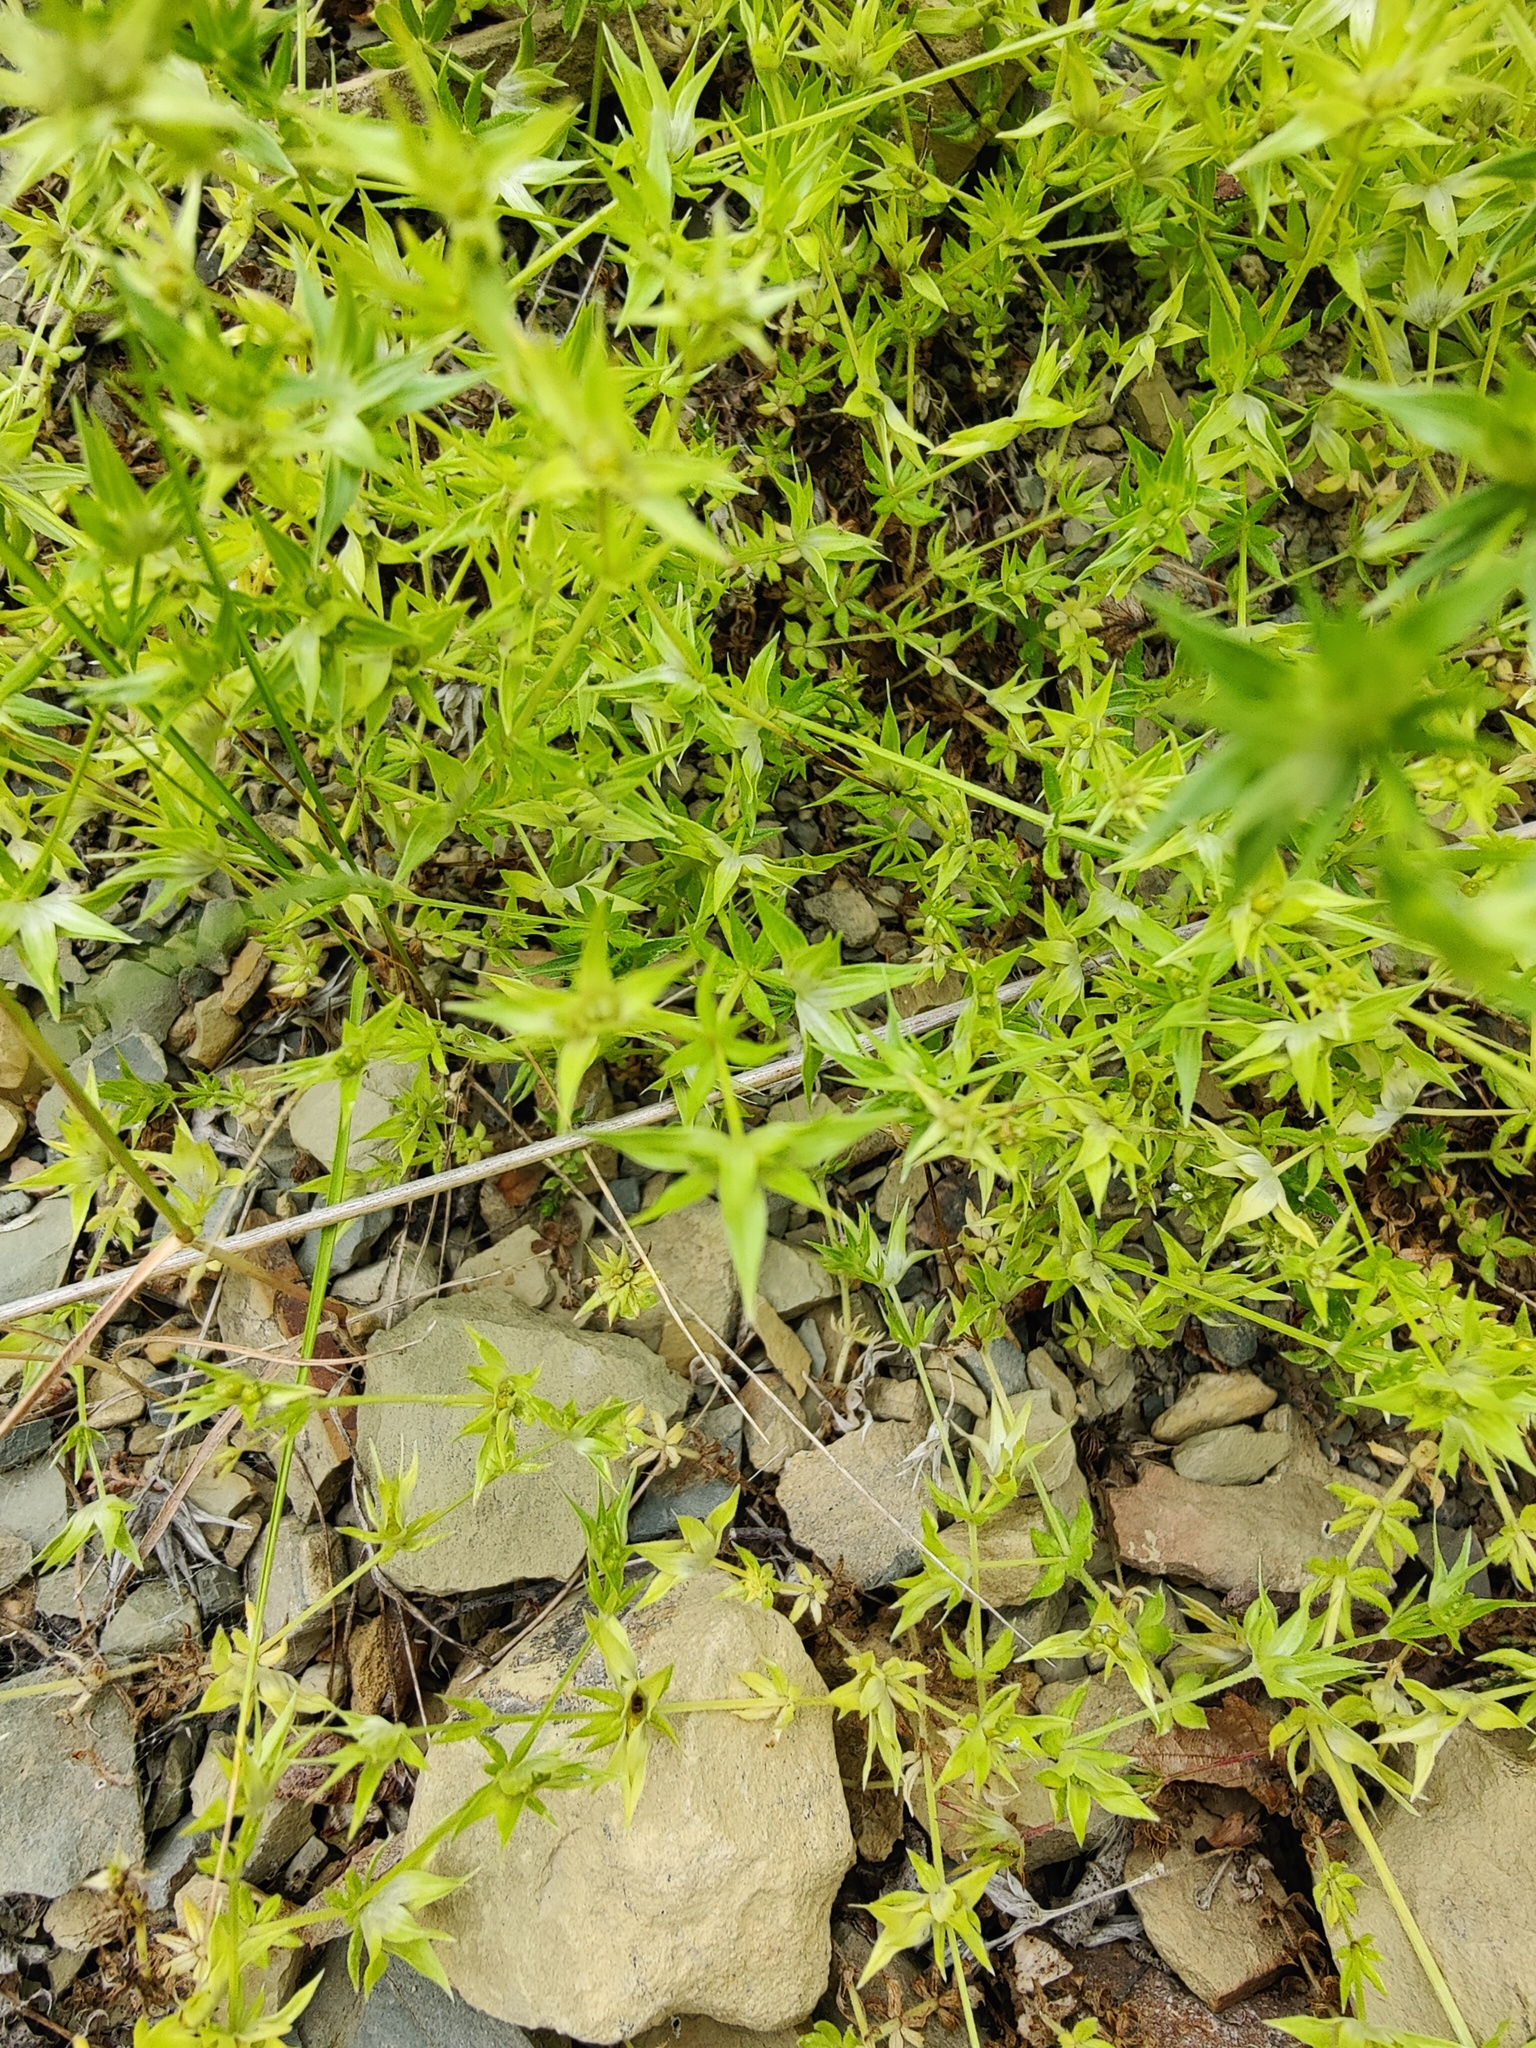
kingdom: Plantae
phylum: Tracheophyta
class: Magnoliopsida
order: Gentianales
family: Rubiaceae
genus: Sherardia
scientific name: Sherardia arvensis
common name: Field madder
